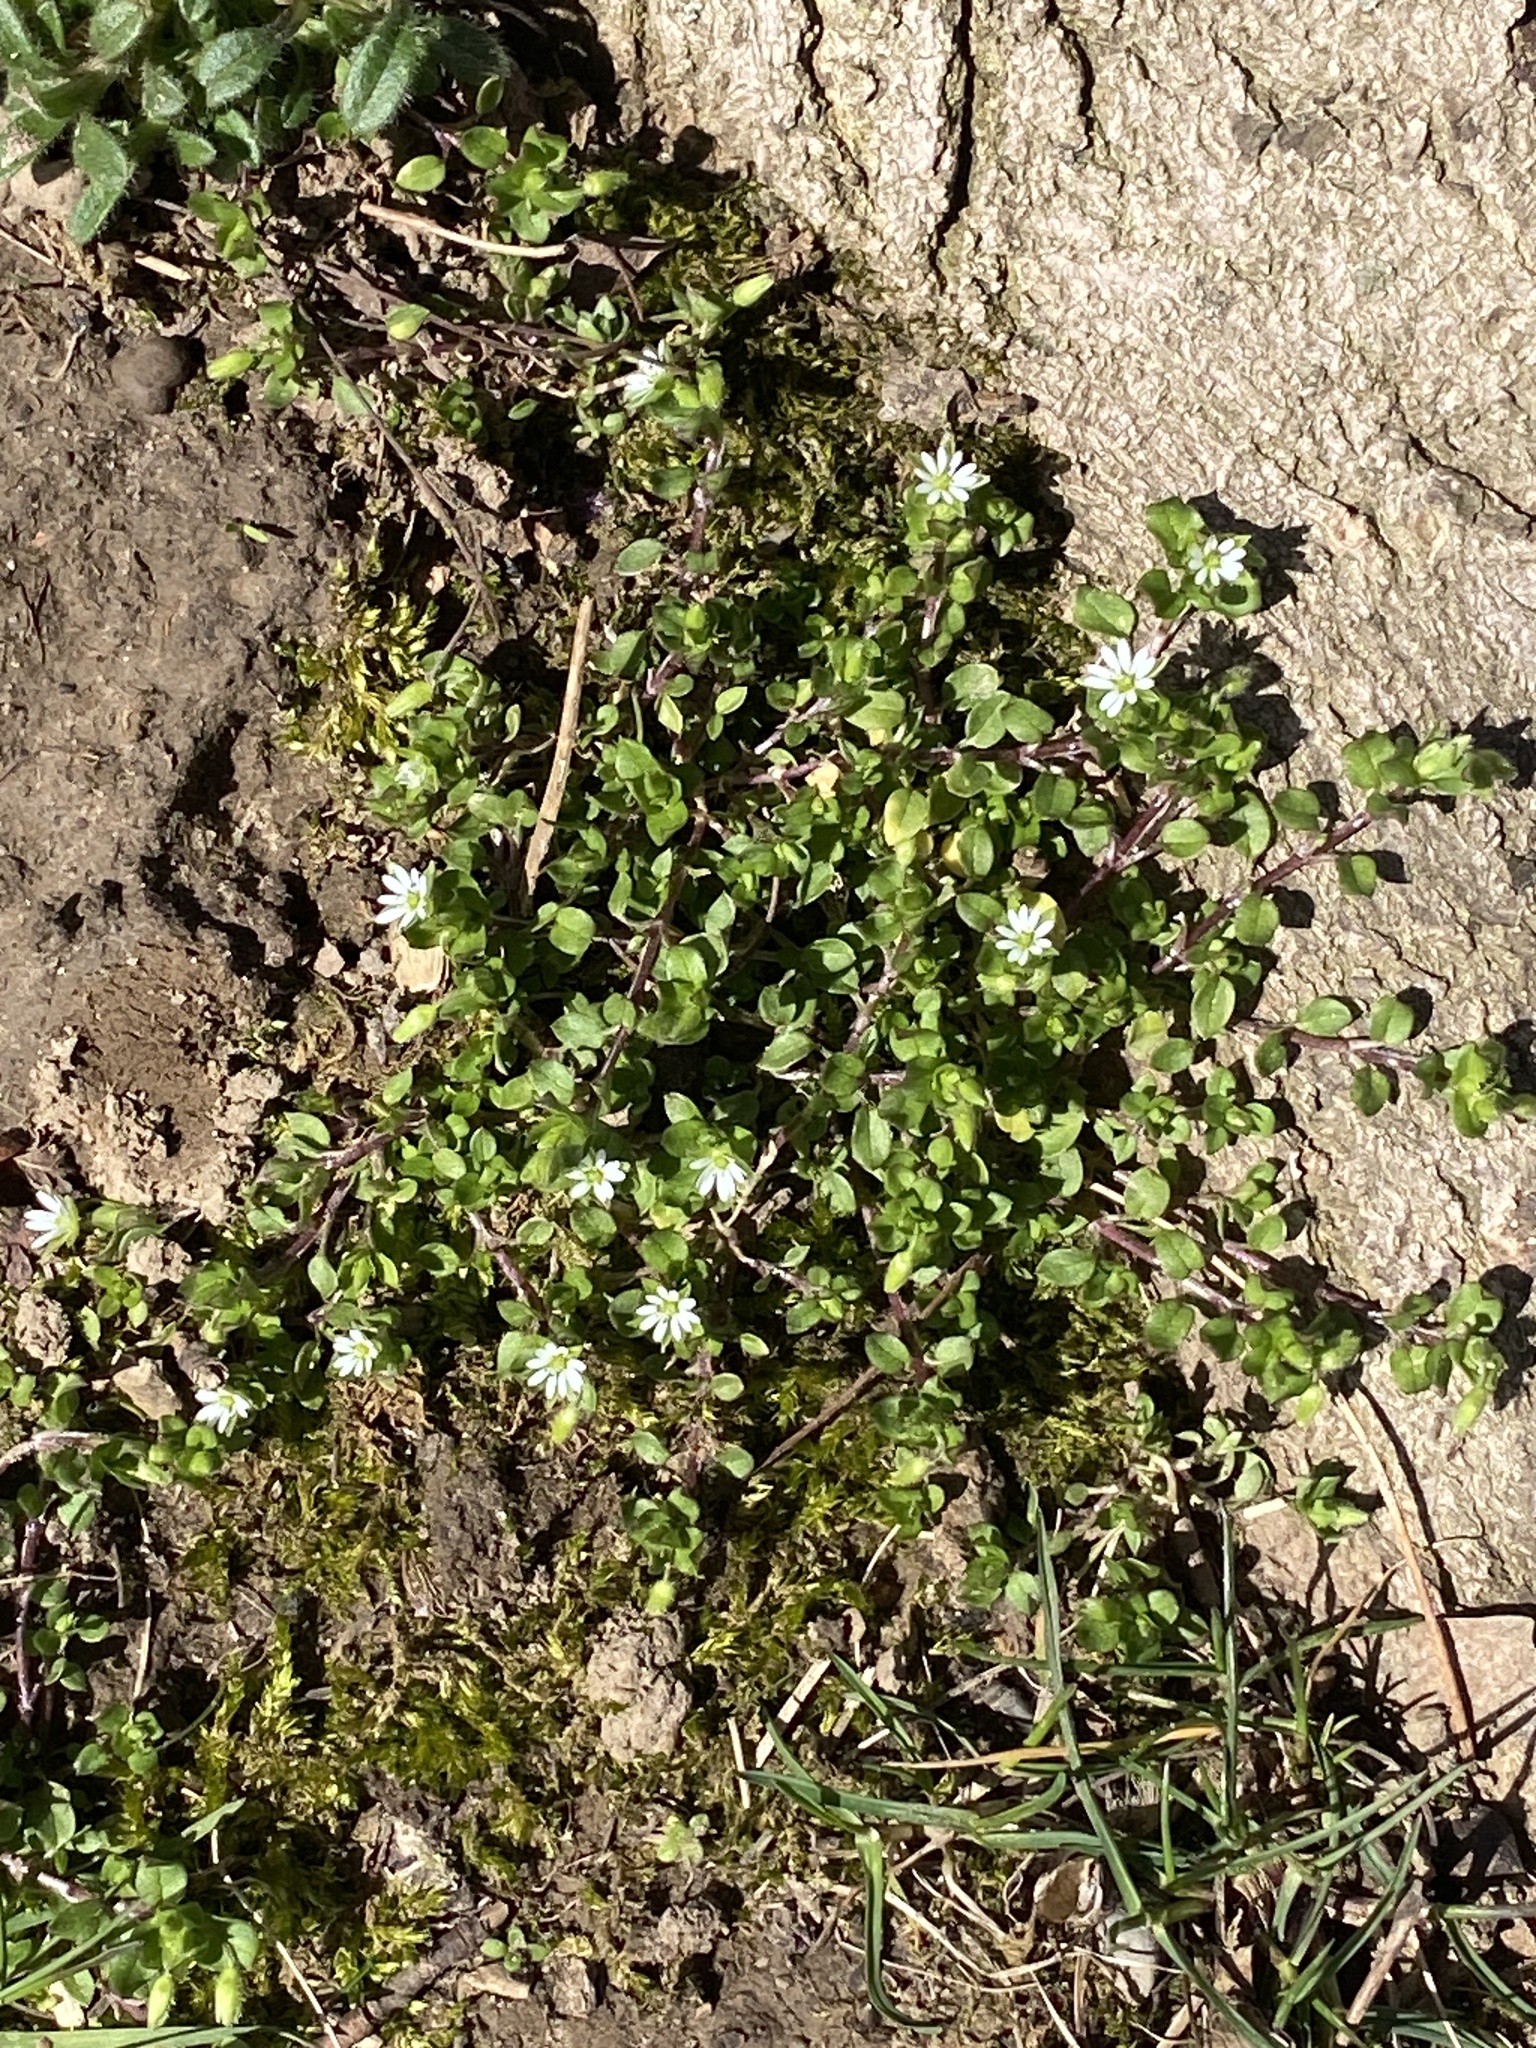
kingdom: Plantae
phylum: Tracheophyta
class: Magnoliopsida
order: Caryophyllales
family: Caryophyllaceae
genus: Stellaria
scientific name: Stellaria media
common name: Common chickweed
